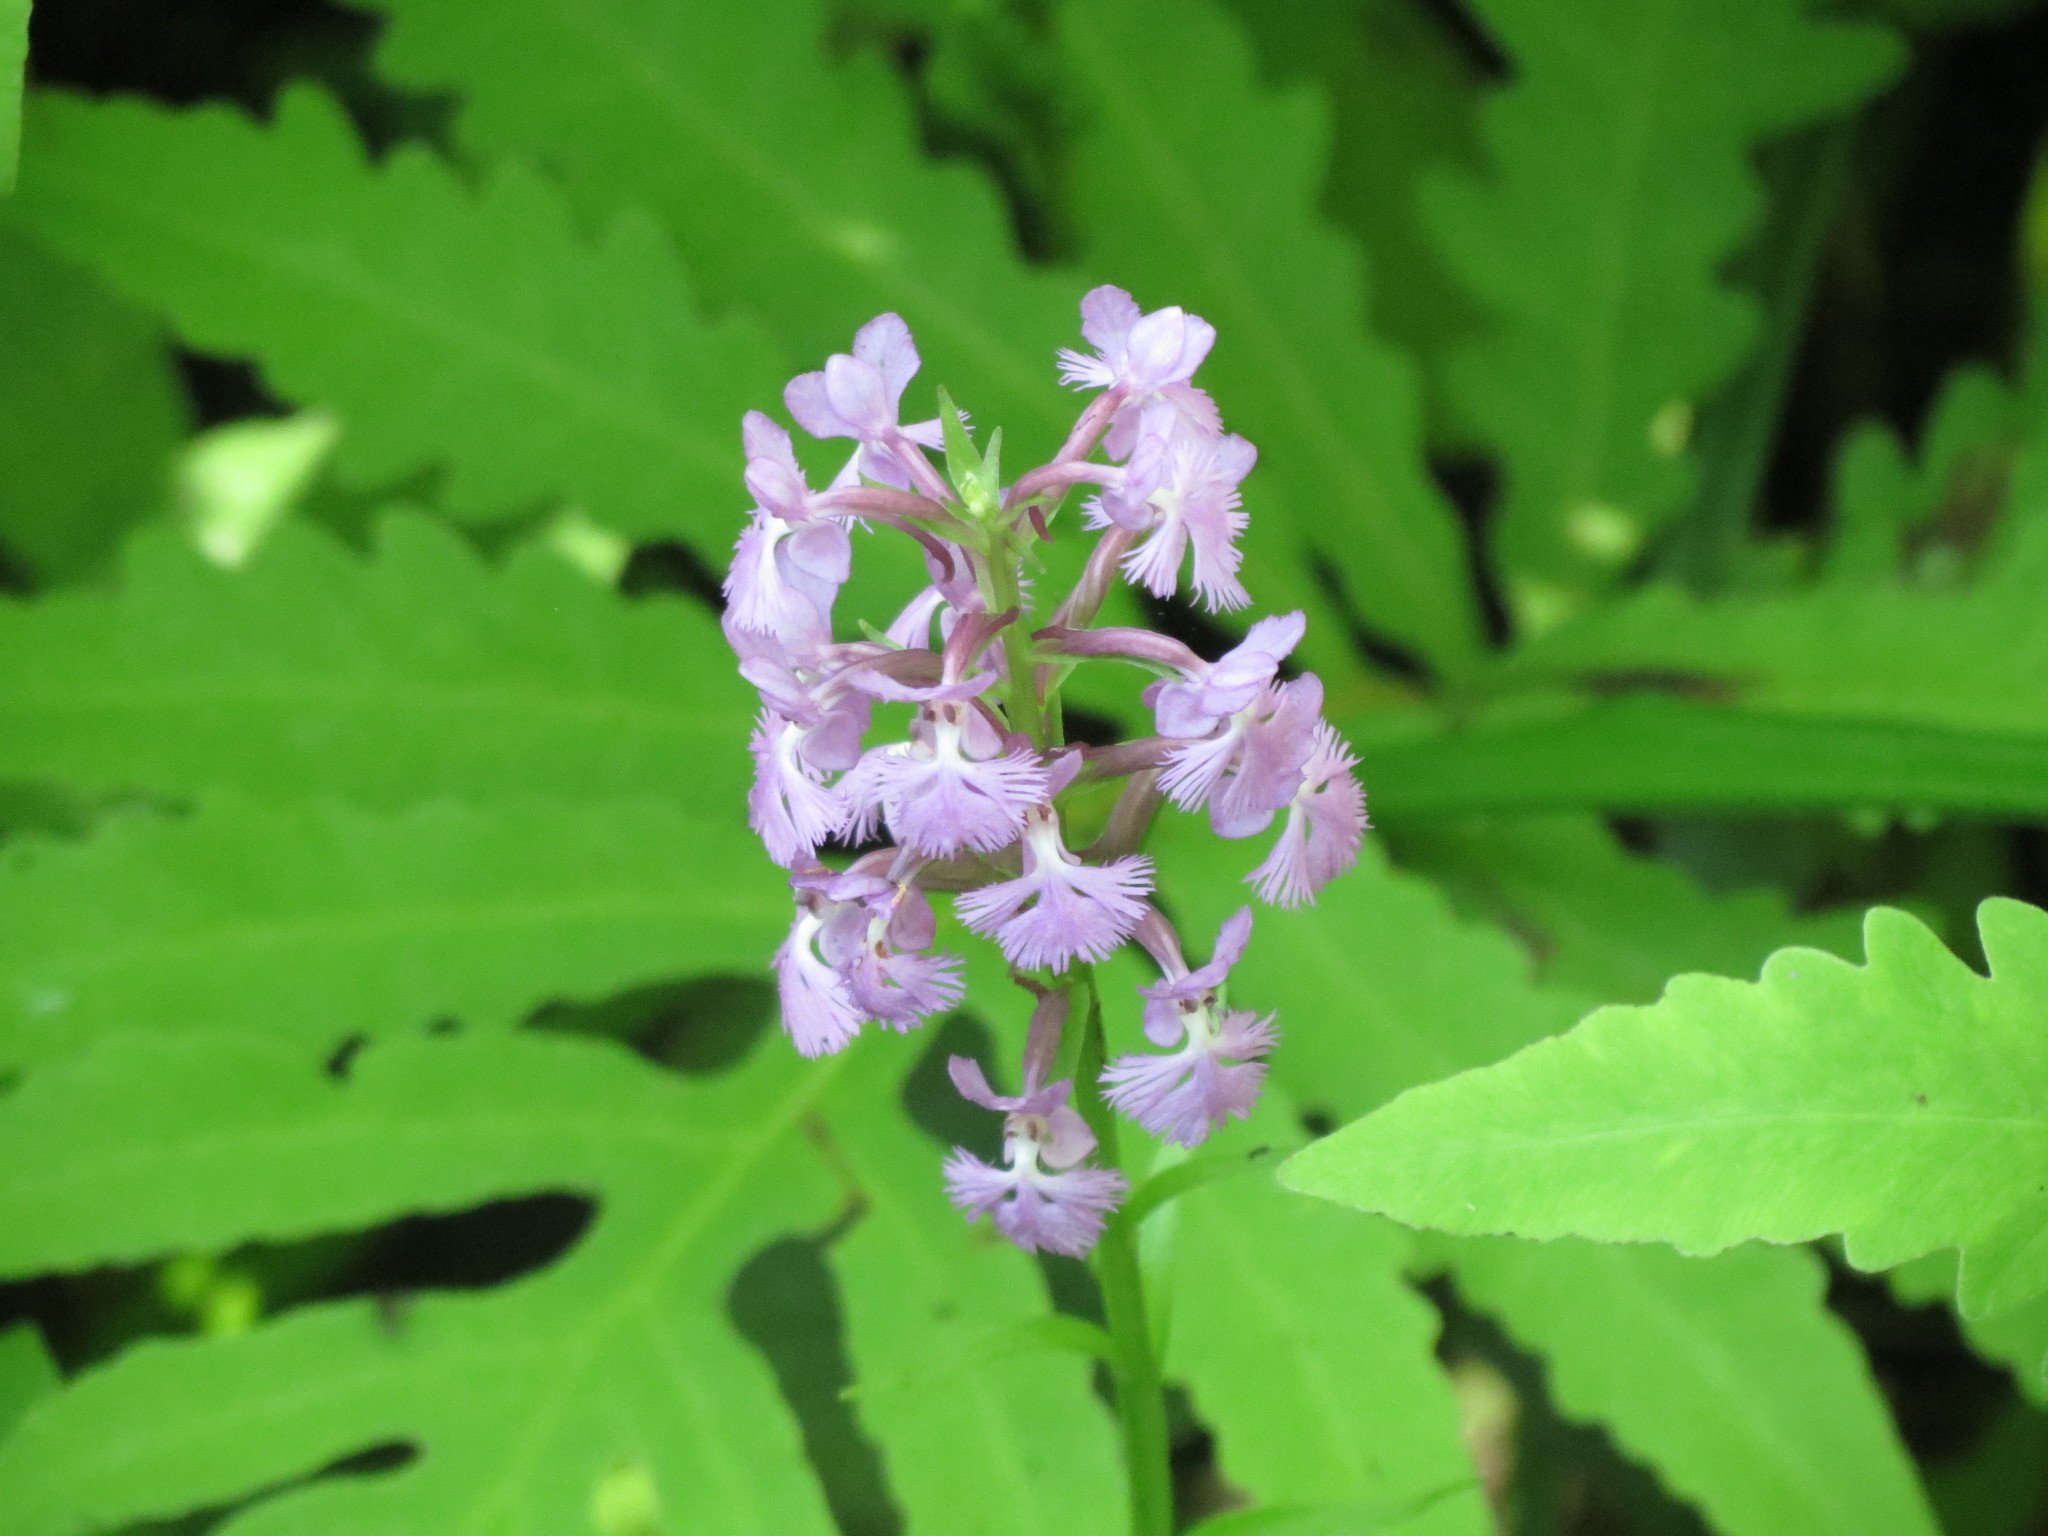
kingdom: Plantae
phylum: Tracheophyta
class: Liliopsida
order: Asparagales
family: Orchidaceae
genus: Platanthera
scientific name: Platanthera psycodes
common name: Lesser purple fringed orchid
